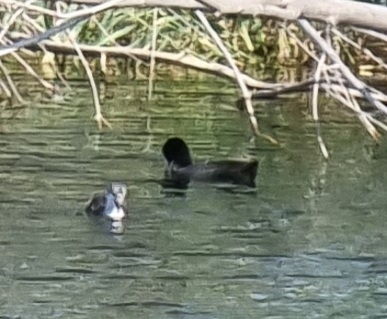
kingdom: Animalia
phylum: Chordata
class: Aves
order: Gruiformes
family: Rallidae
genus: Fulica
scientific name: Fulica atra
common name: Eurasian coot
